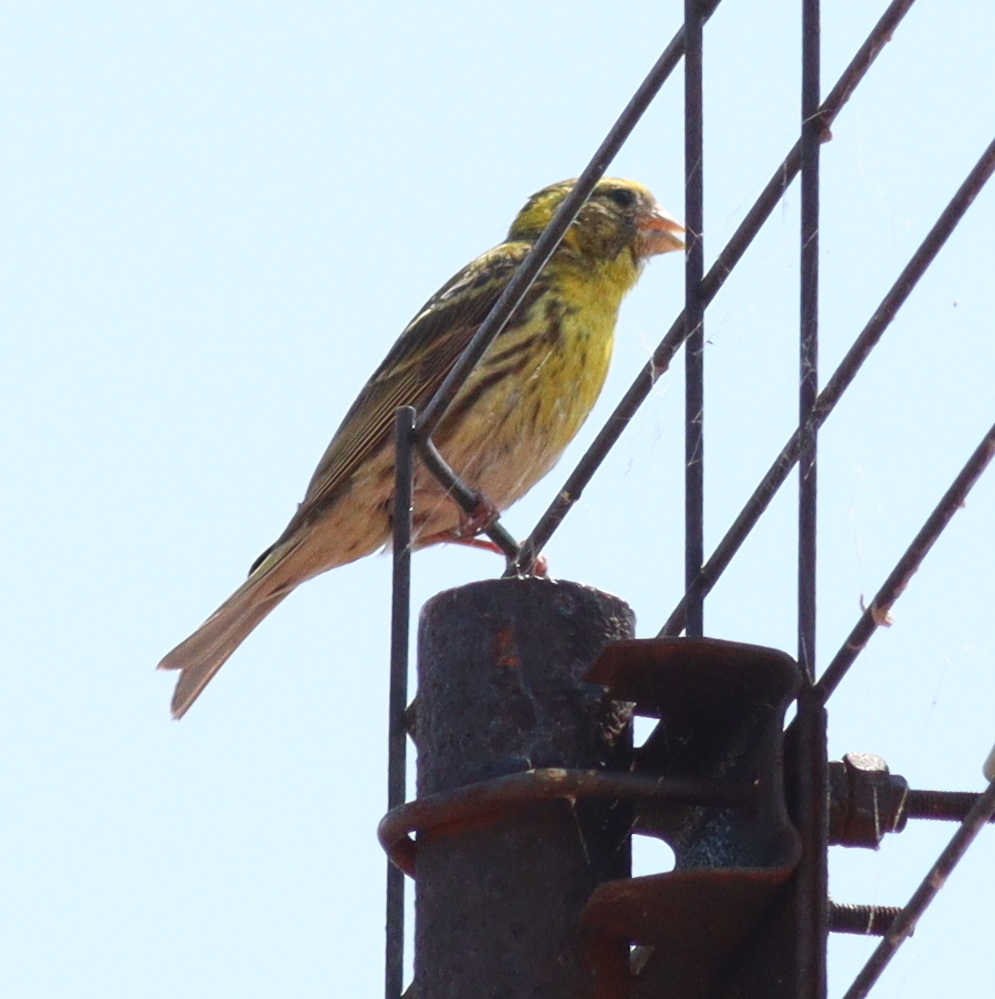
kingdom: Animalia
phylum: Chordata
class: Aves
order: Passeriformes
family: Fringillidae
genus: Serinus
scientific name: Serinus serinus
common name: European serin
